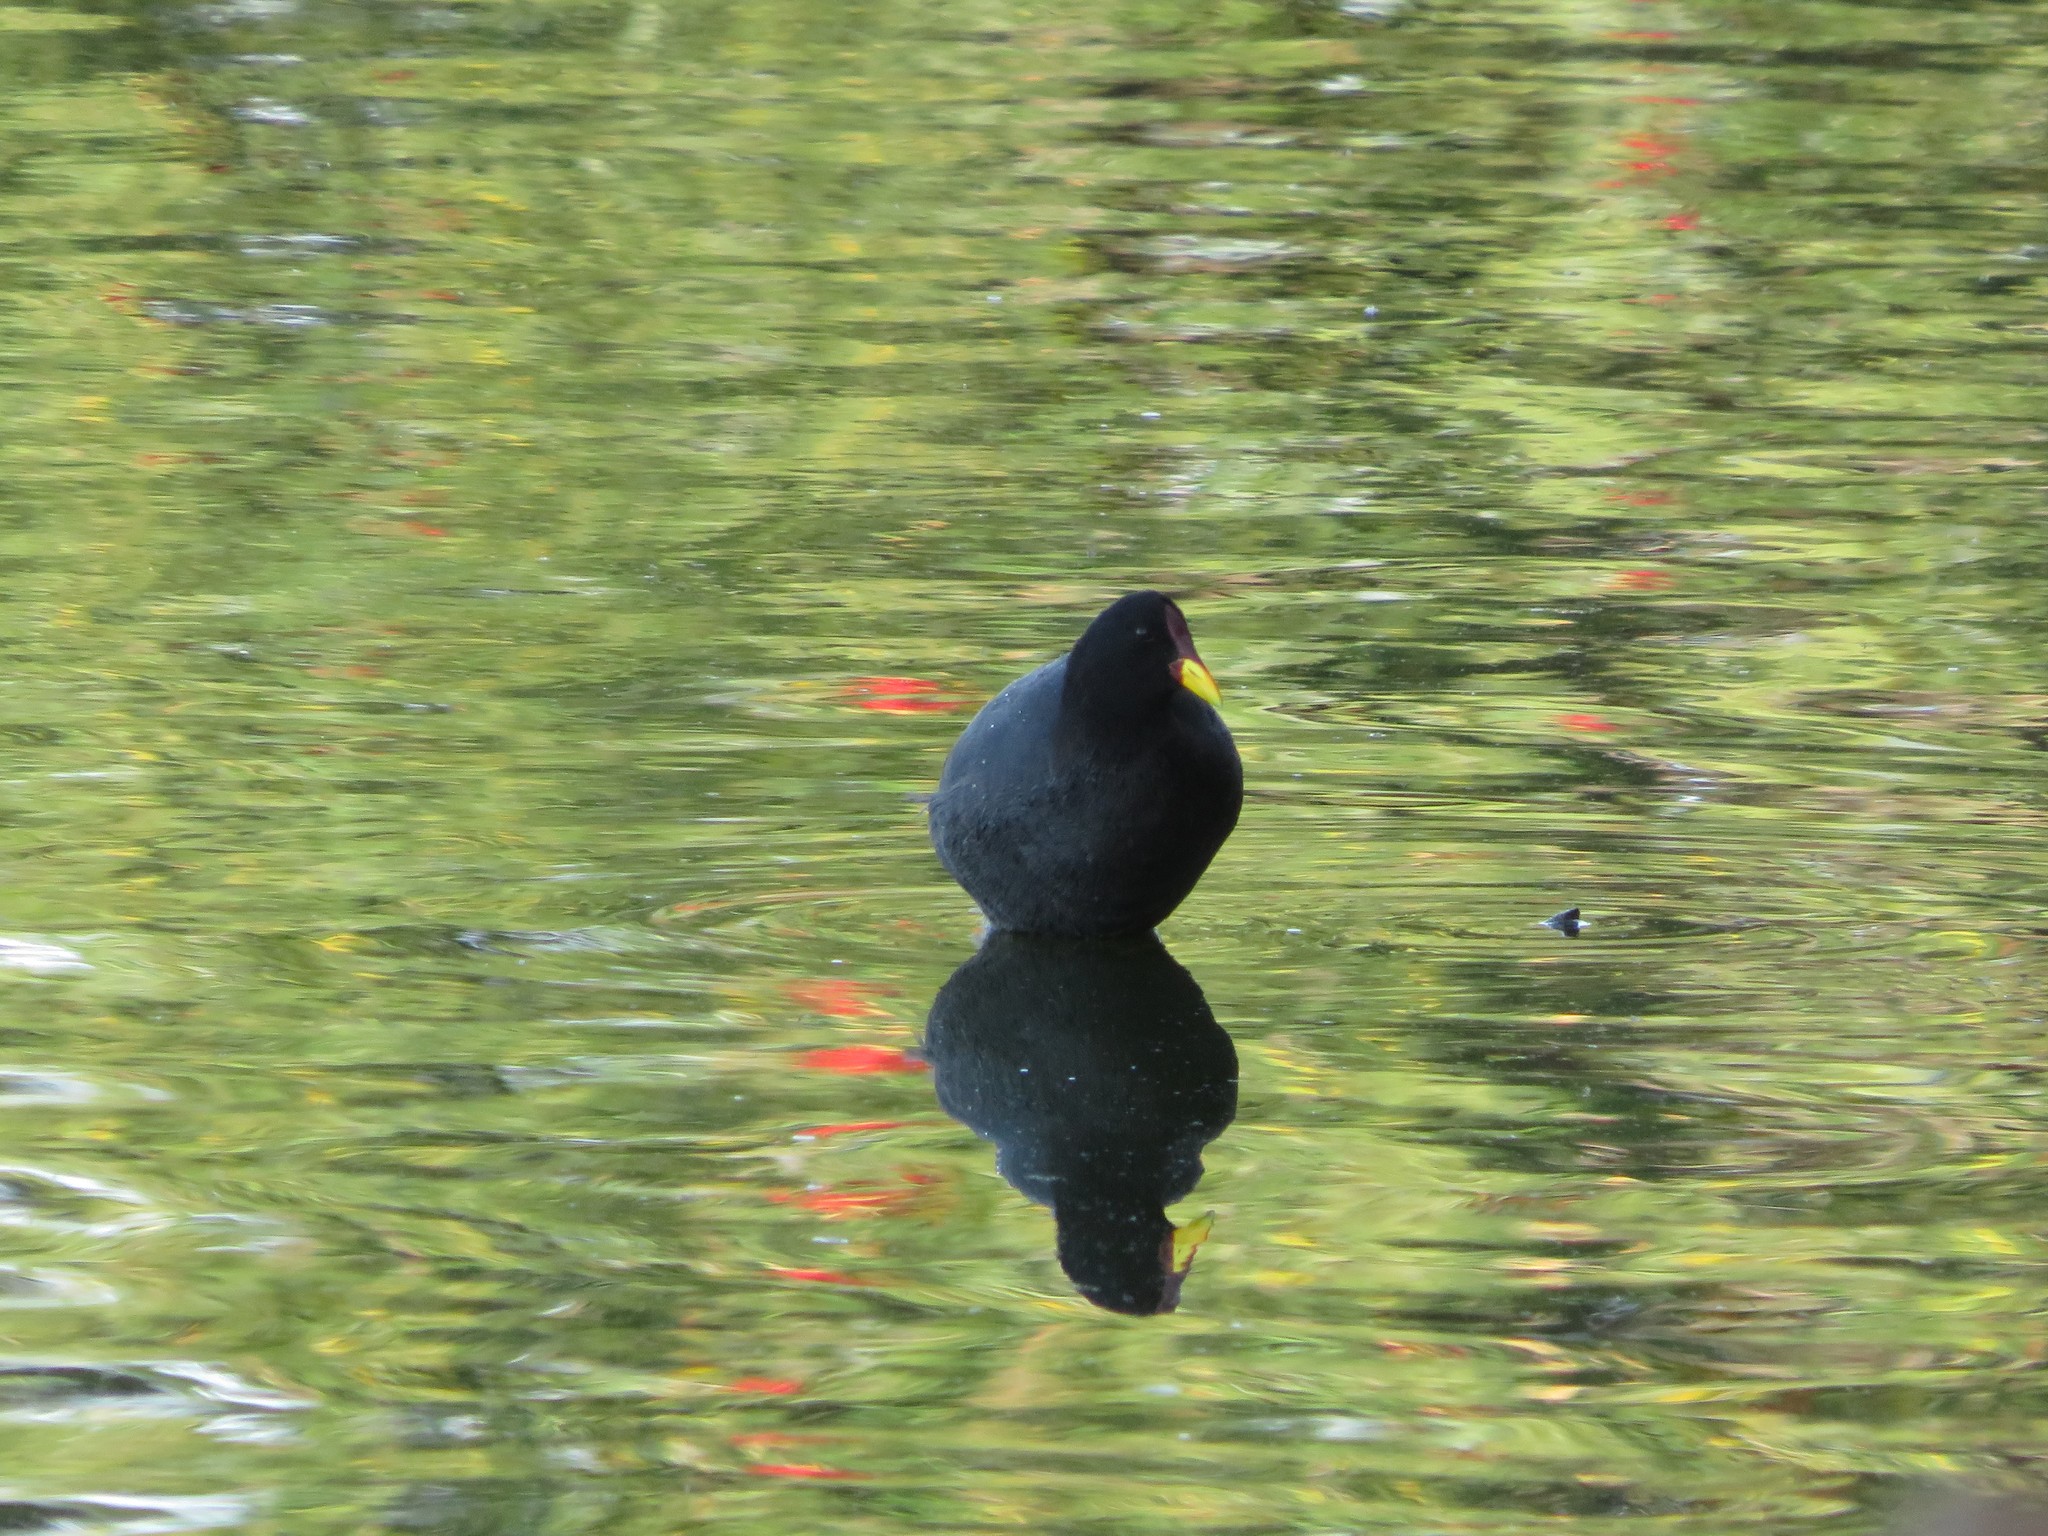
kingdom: Animalia
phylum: Chordata
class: Aves
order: Gruiformes
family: Rallidae
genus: Fulica
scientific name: Fulica rufifrons
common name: Red-fronted coot
